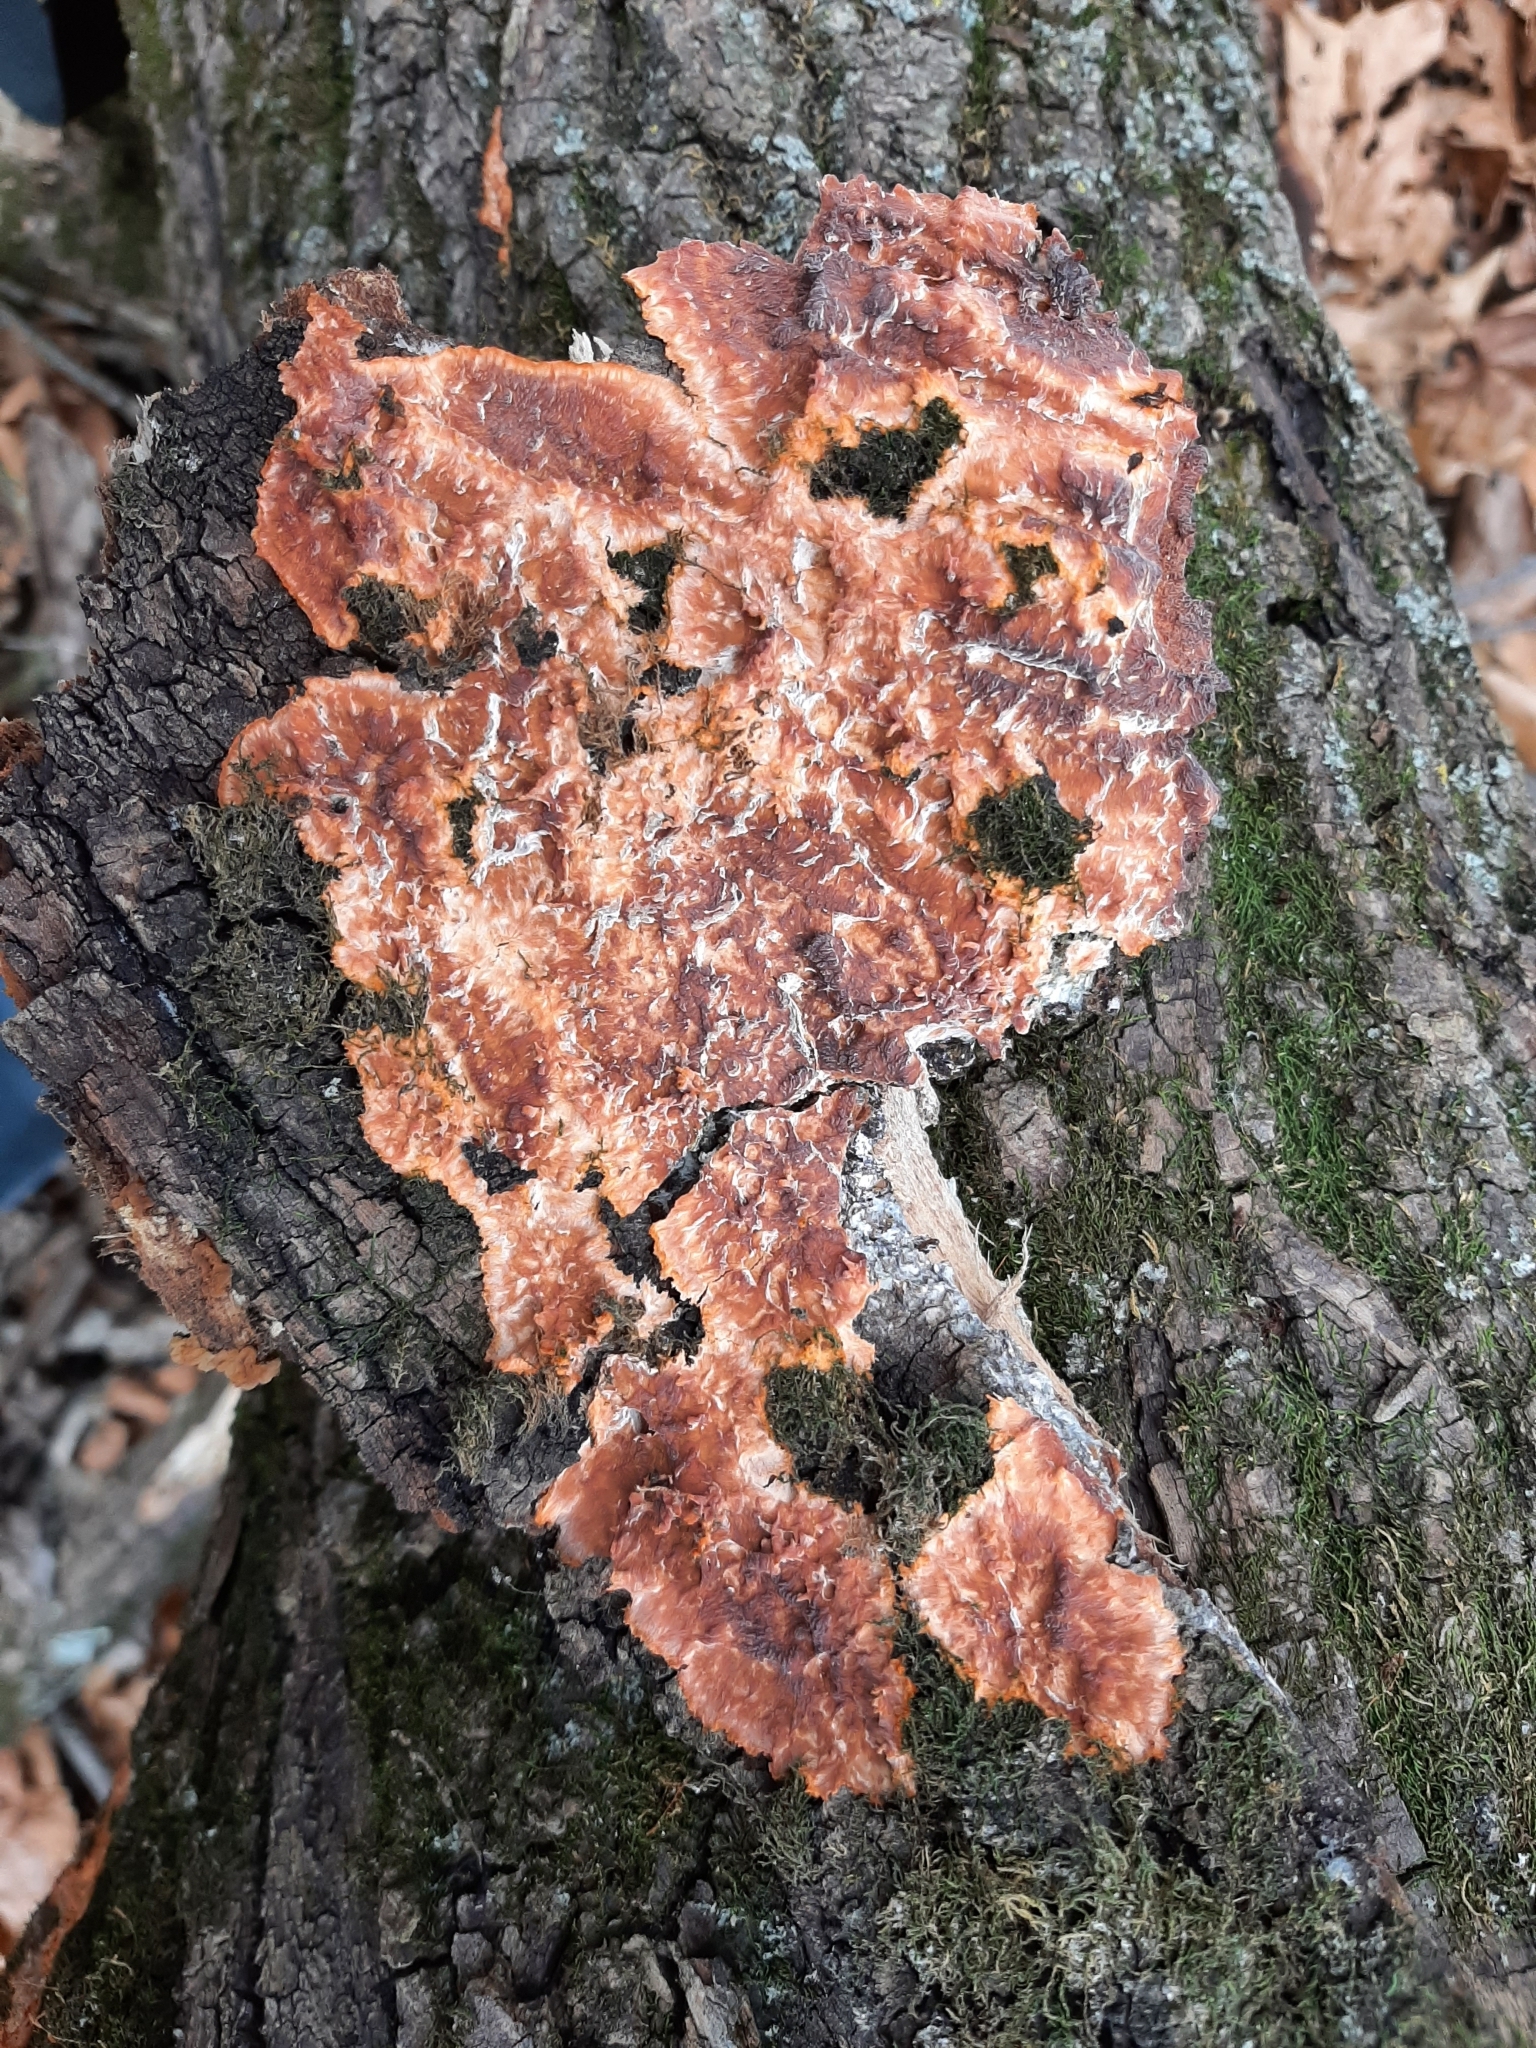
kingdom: Fungi
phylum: Basidiomycota
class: Agaricomycetes
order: Polyporales
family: Meruliaceae
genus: Phlebia
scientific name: Phlebia radiata
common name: Wrinkled crust
